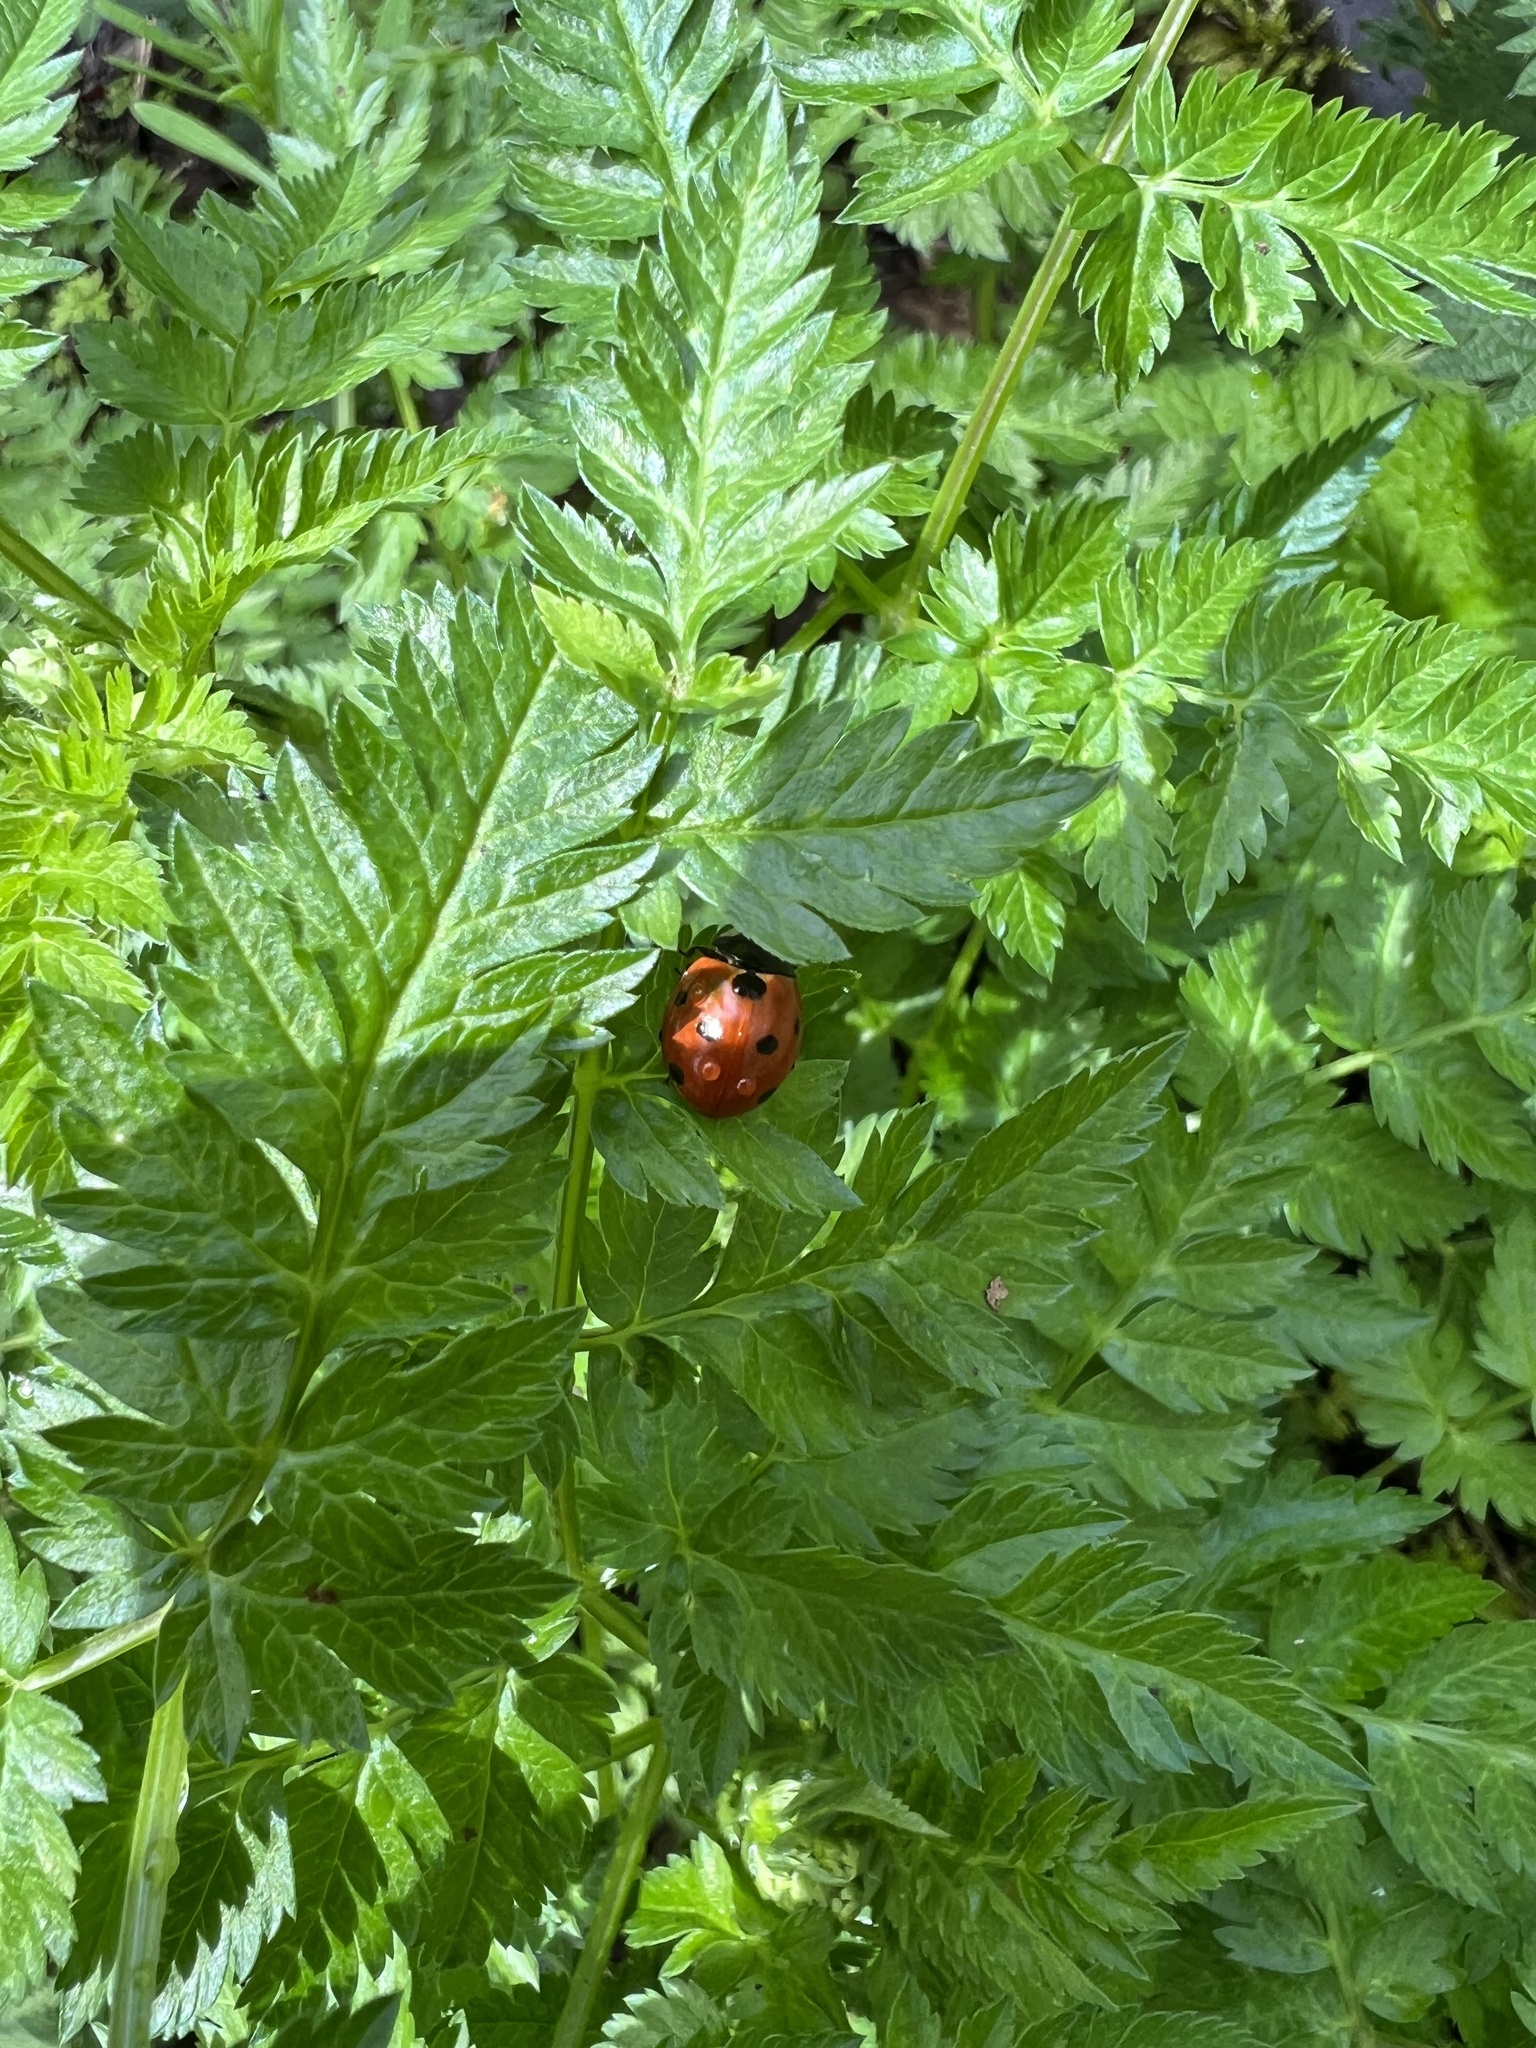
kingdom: Animalia
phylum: Arthropoda
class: Insecta
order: Coleoptera
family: Coccinellidae
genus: Coccinella
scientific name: Coccinella septempunctata
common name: Sevenspotted lady beetle
